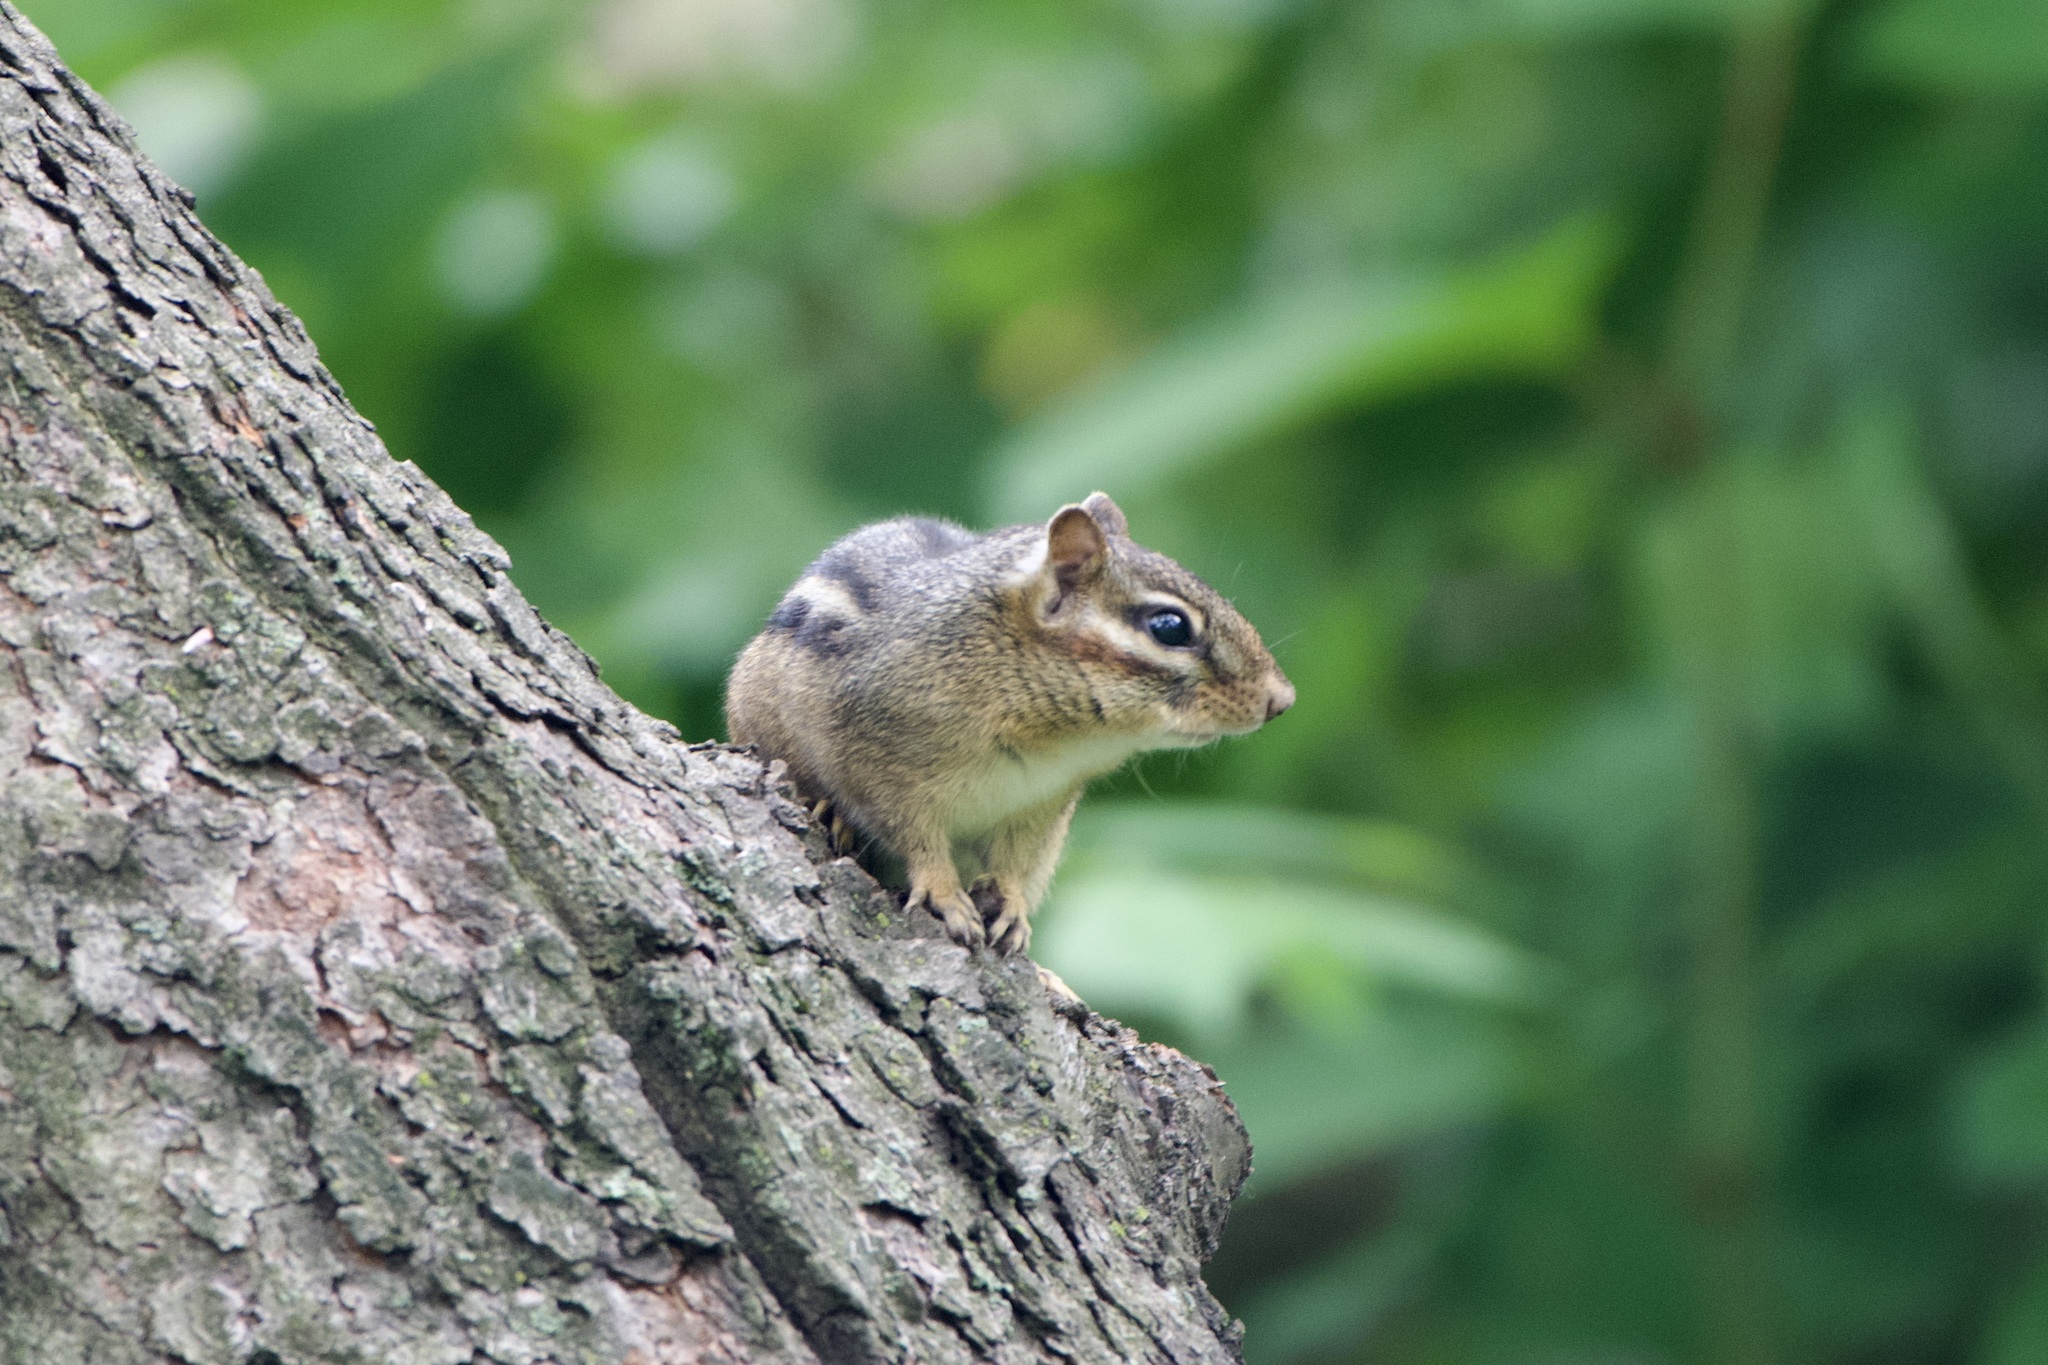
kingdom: Animalia
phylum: Chordata
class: Mammalia
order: Rodentia
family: Sciuridae
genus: Tamias
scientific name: Tamias striatus
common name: Eastern chipmunk
